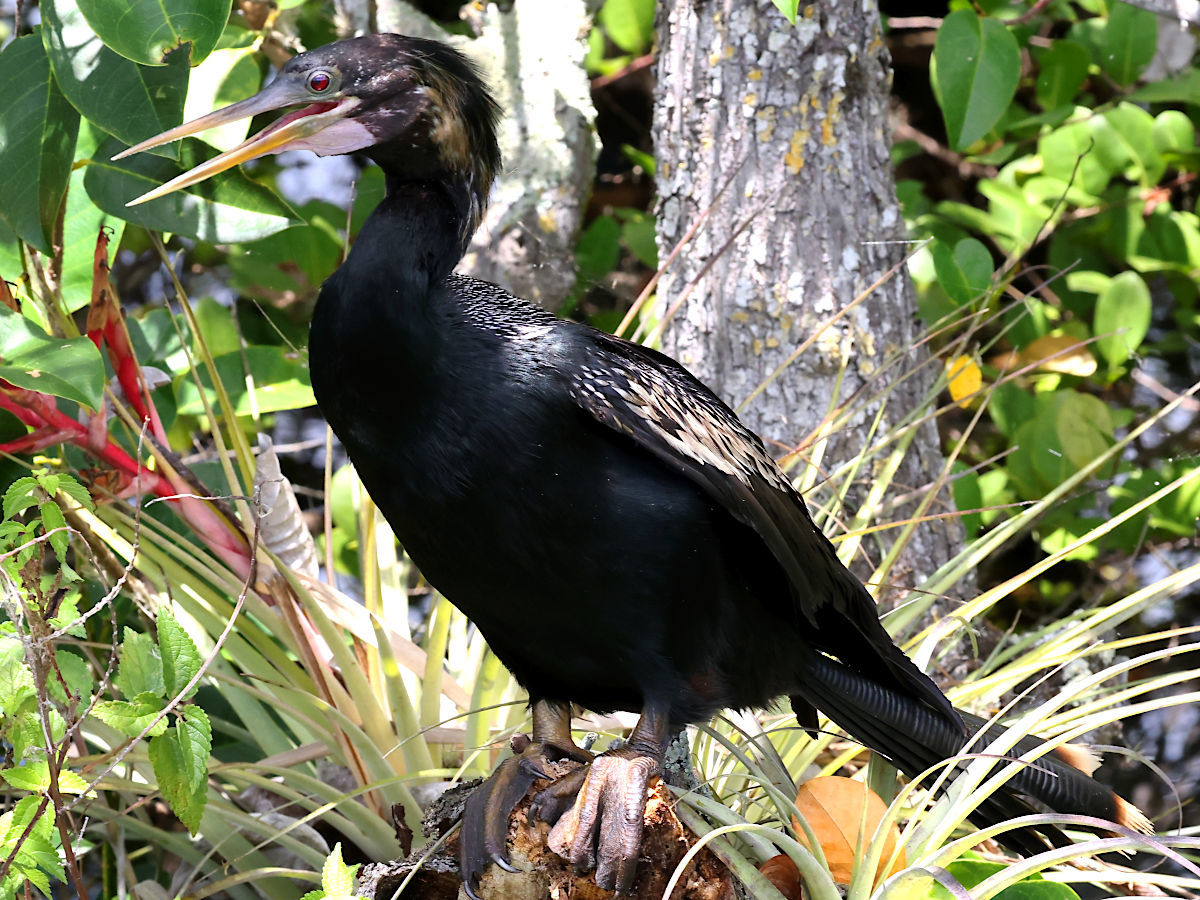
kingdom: Animalia
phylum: Chordata
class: Aves
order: Suliformes
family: Anhingidae
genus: Anhinga
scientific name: Anhinga anhinga
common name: Anhinga
